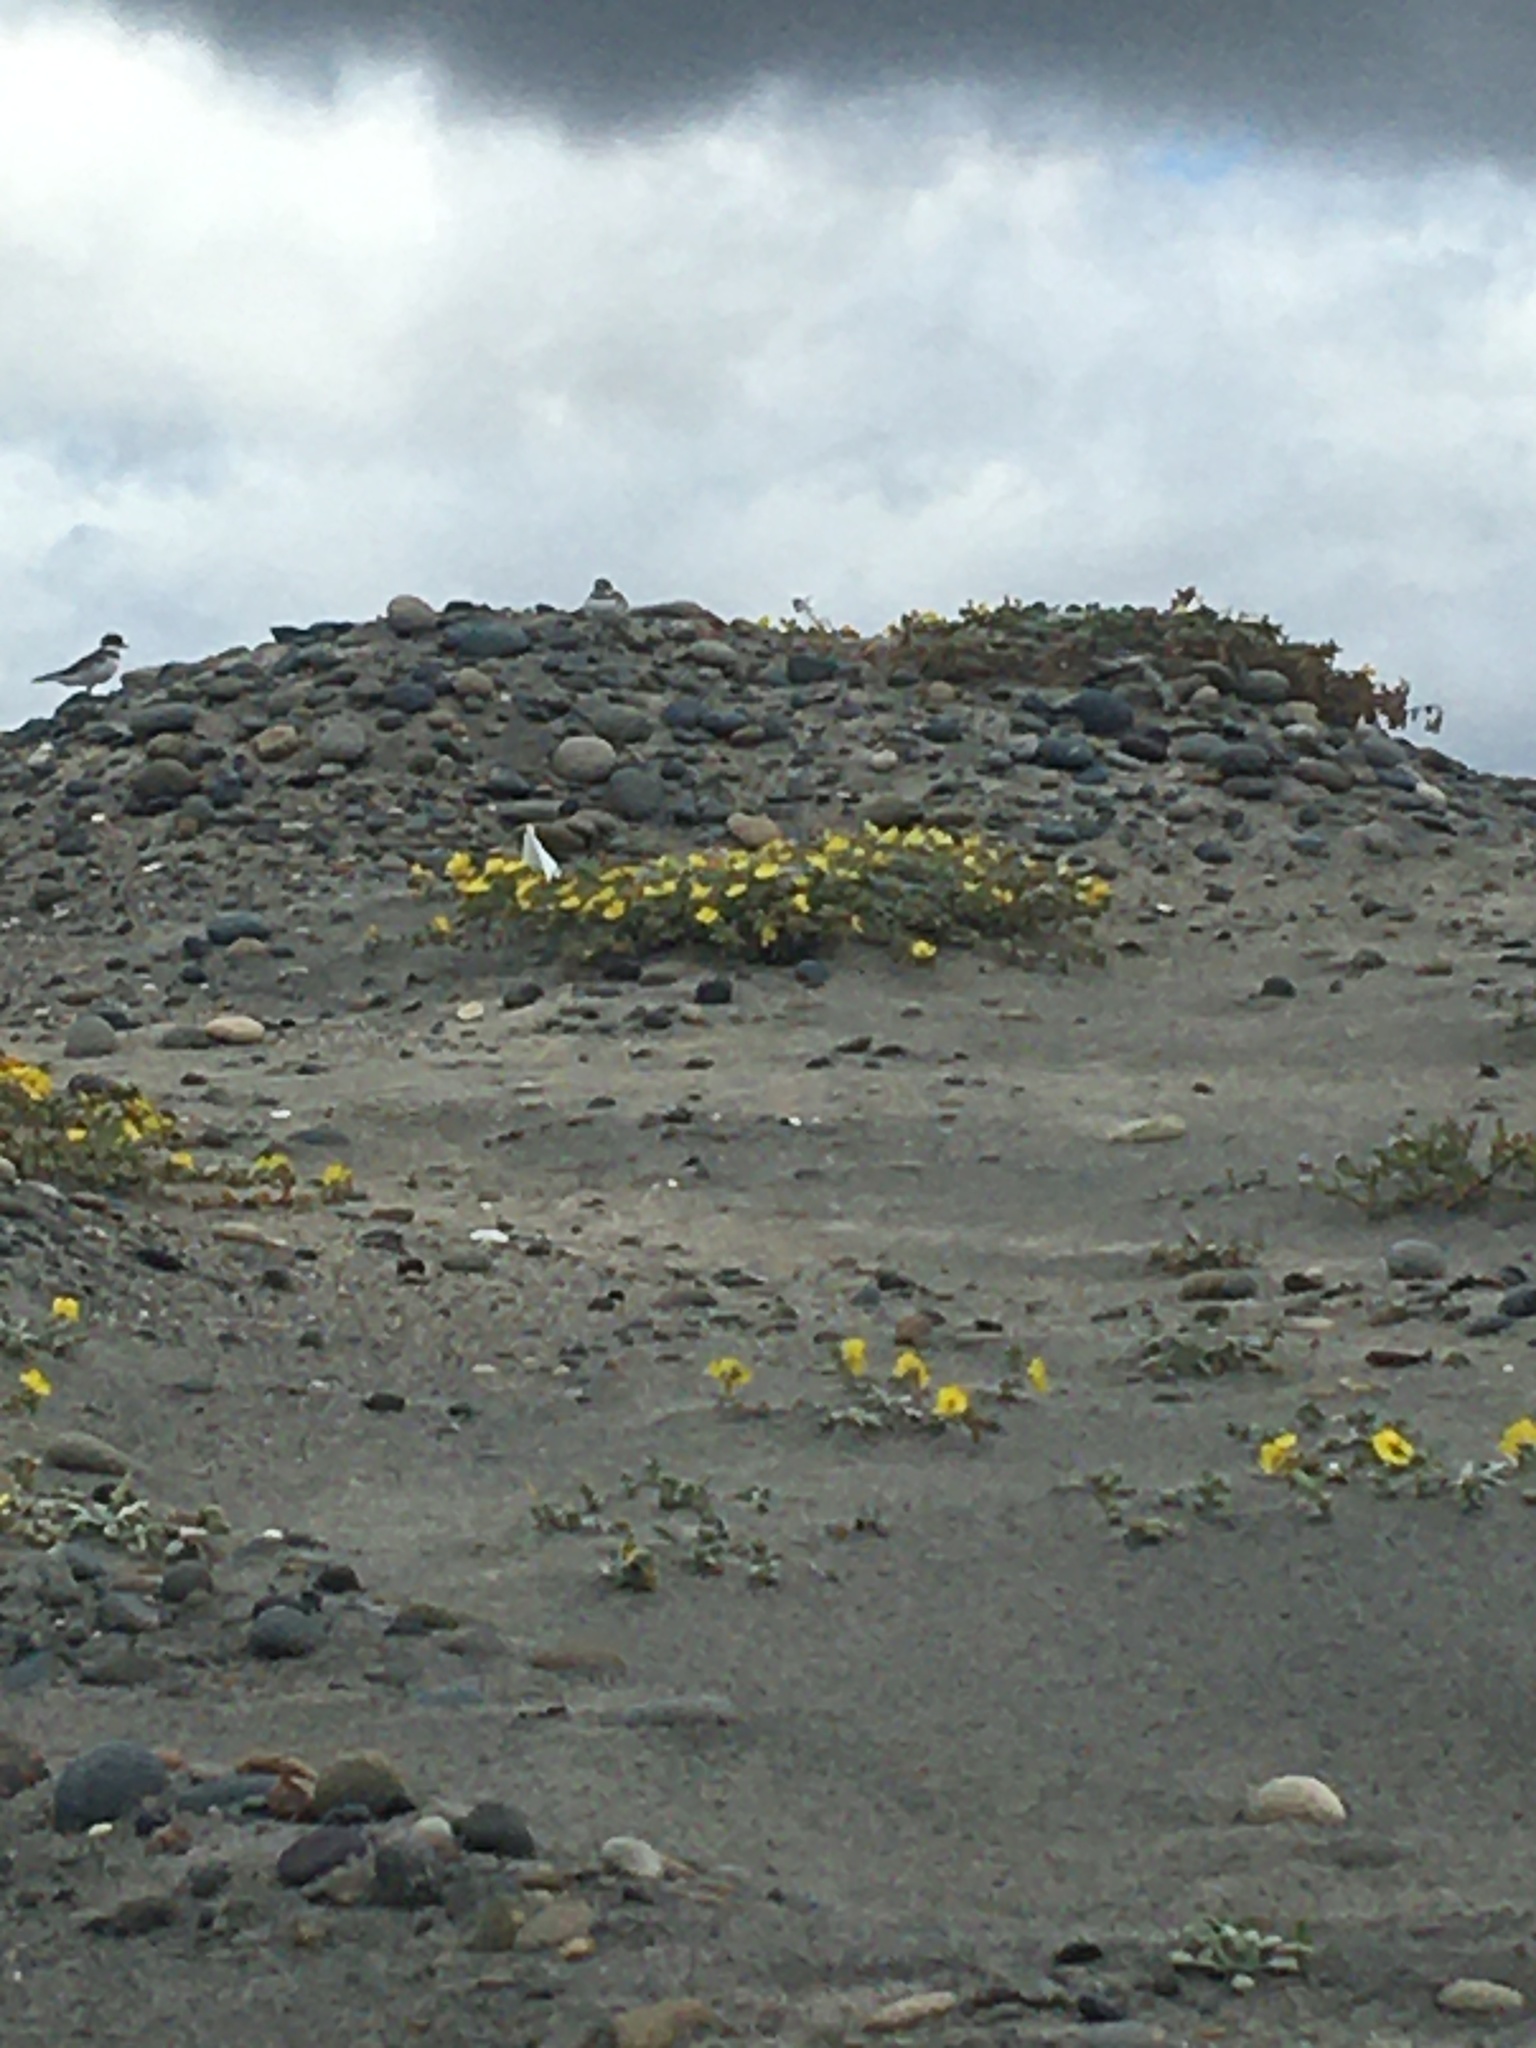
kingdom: Animalia
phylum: Chordata
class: Aves
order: Charadriiformes
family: Charadriidae
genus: Charadrius
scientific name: Charadrius semipalmatus
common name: Semipalmated plover
